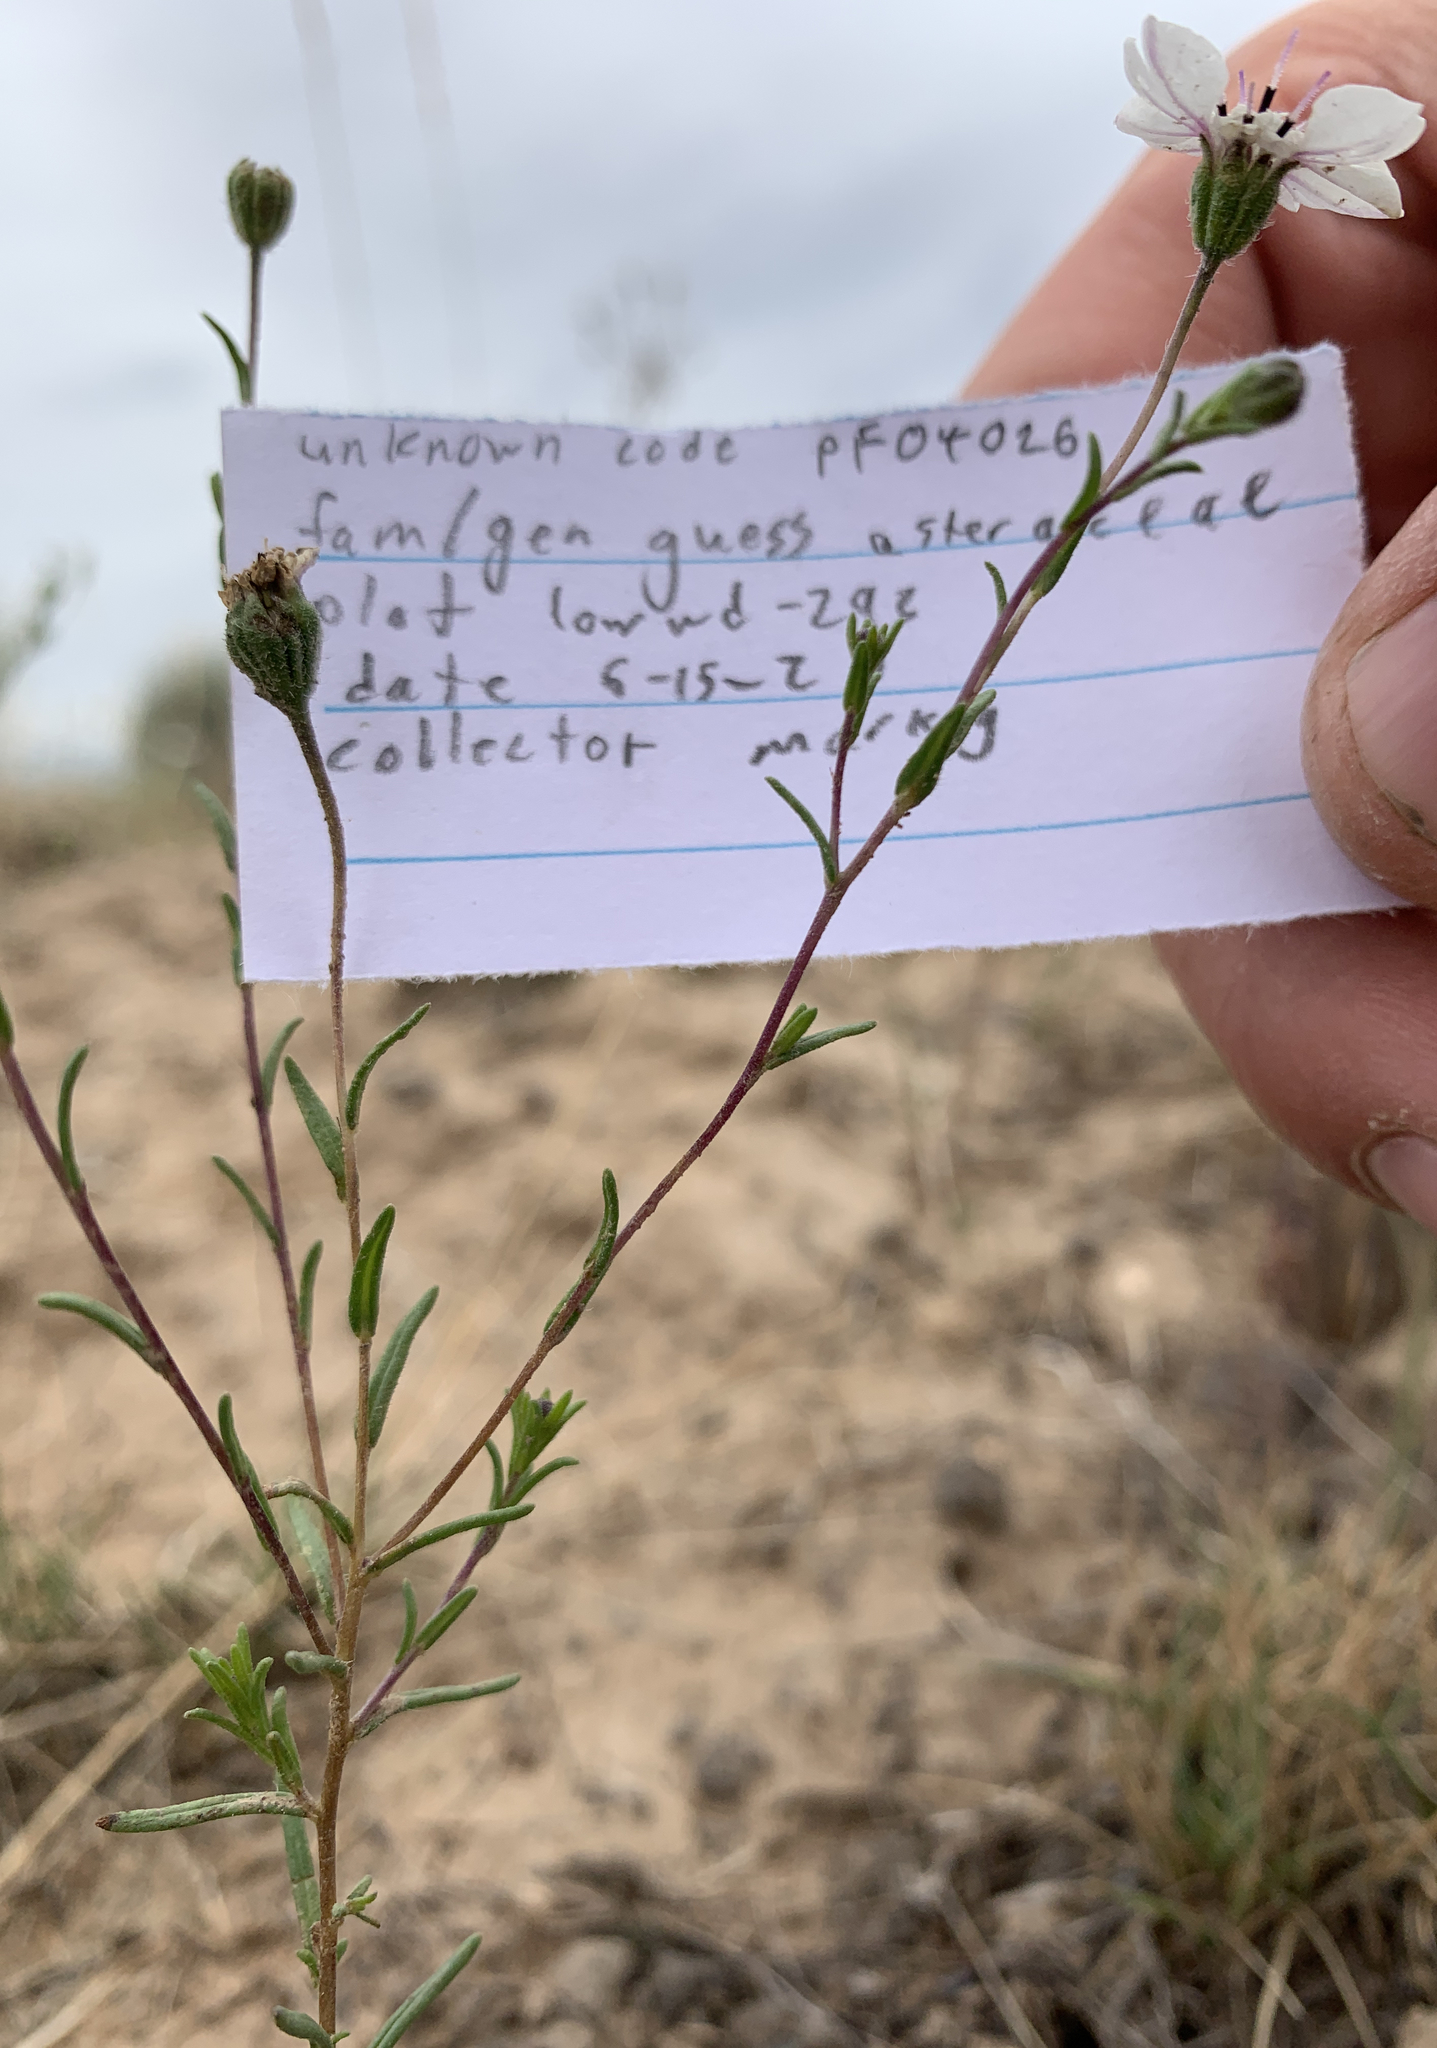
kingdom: Plantae
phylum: Tracheophyta
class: Magnoliopsida
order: Asterales
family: Asteraceae
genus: Blepharipappus
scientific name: Blepharipappus scaber
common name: Rough blepharipappus
